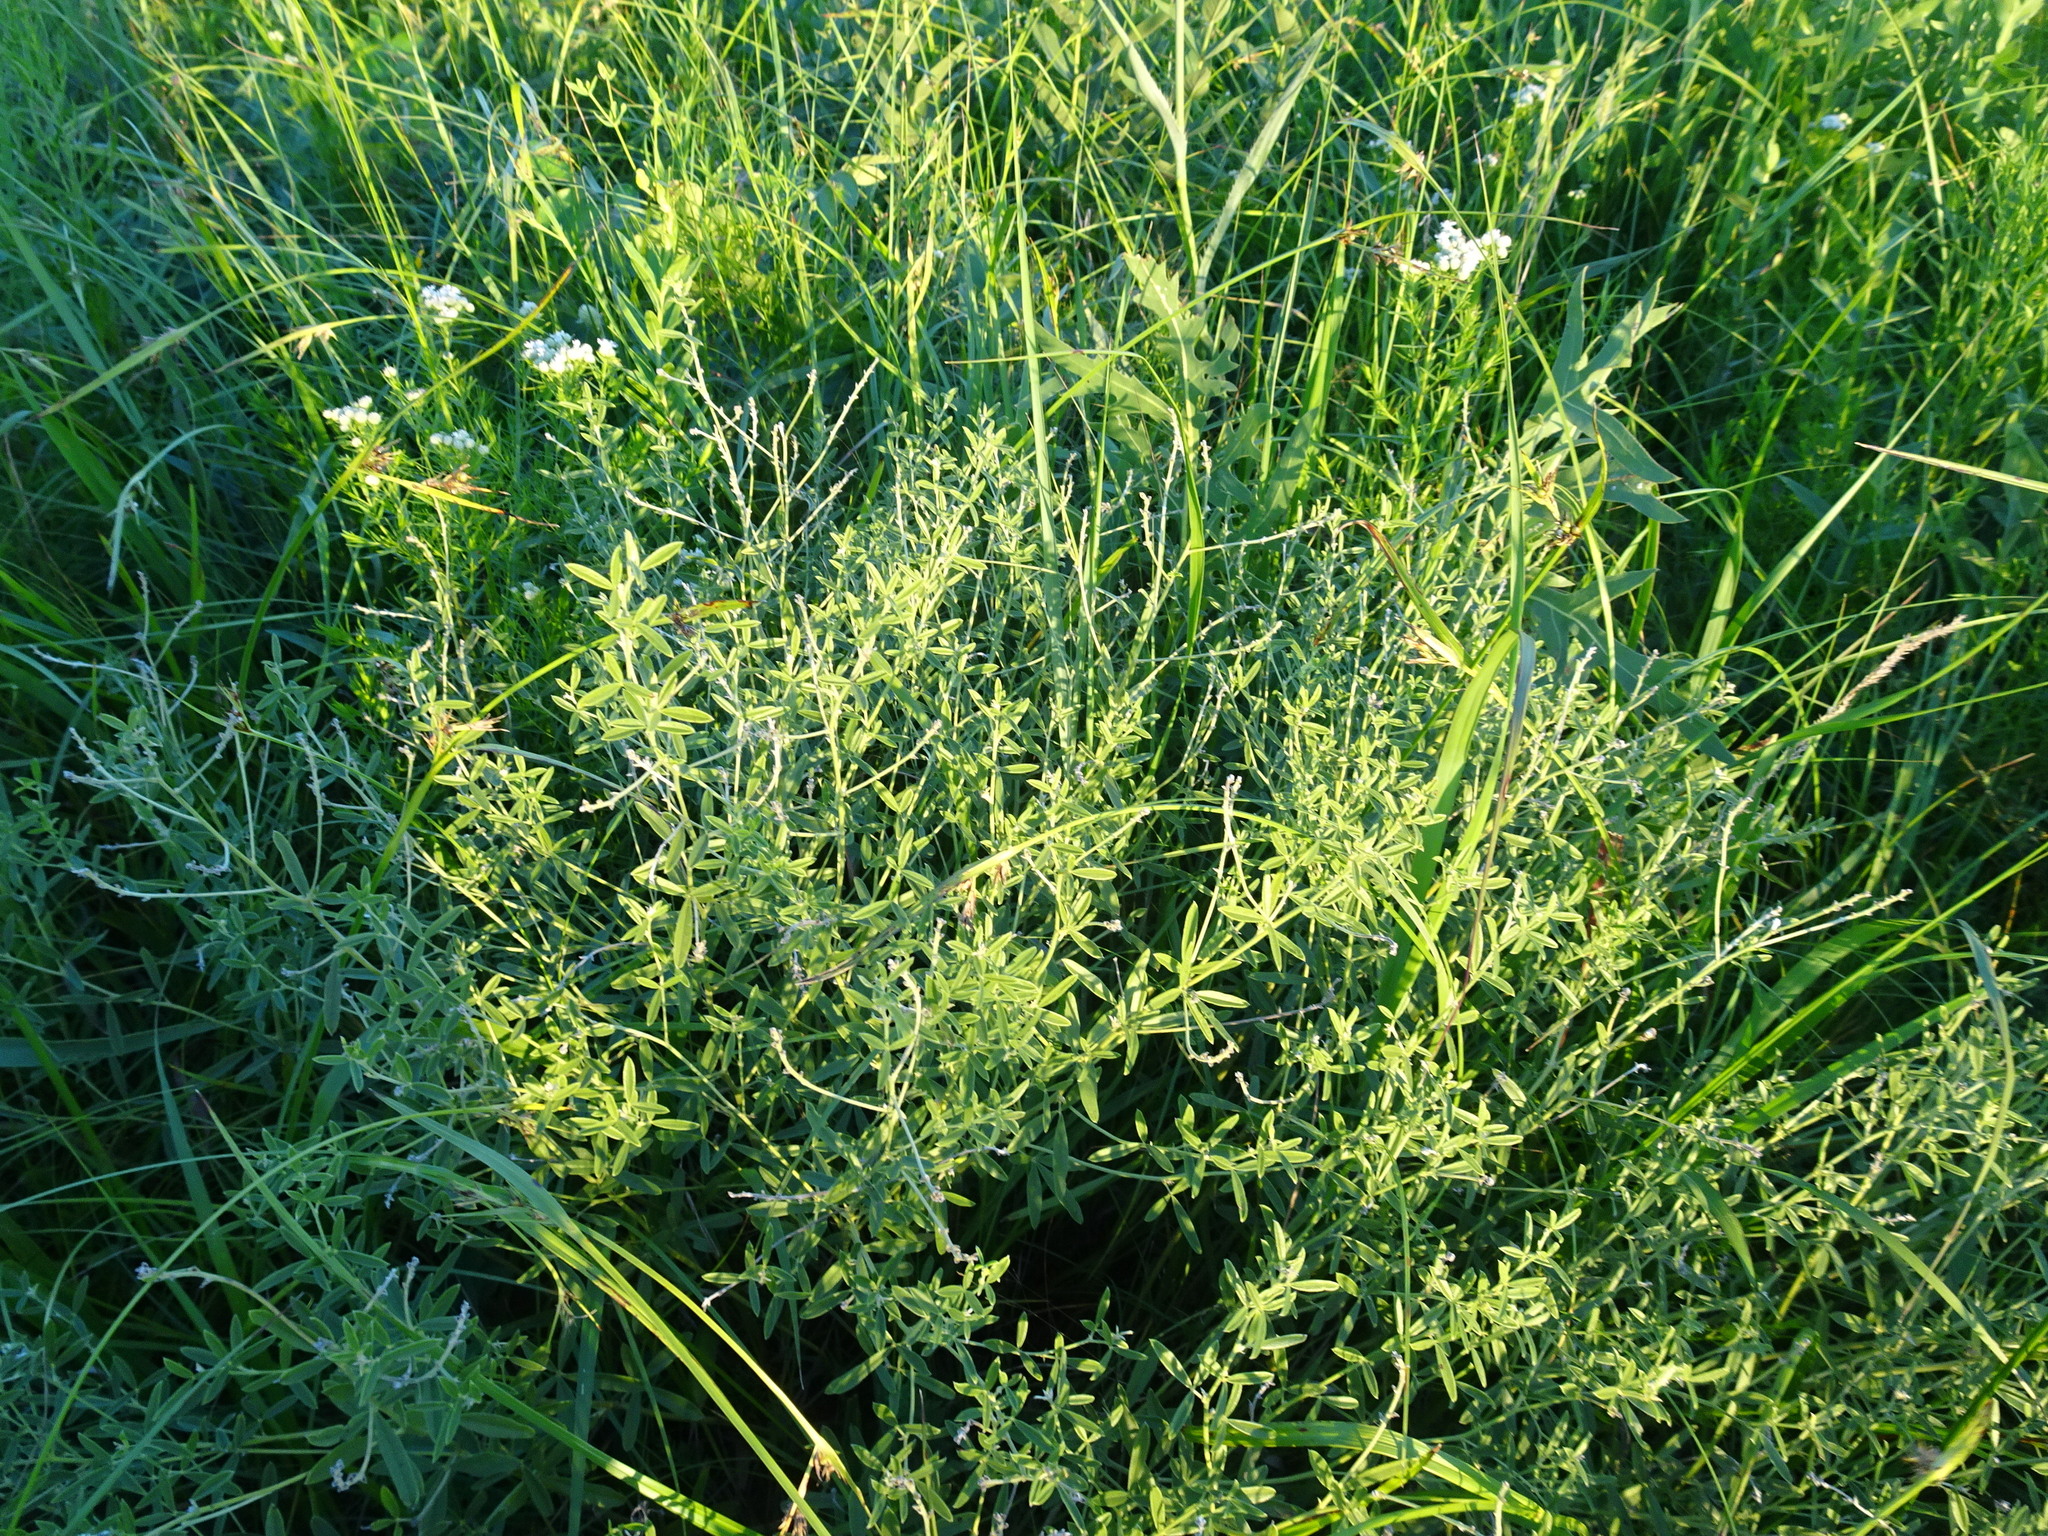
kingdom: Plantae
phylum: Tracheophyta
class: Magnoliopsida
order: Fabales
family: Fabaceae
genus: Pediomelum
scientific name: Pediomelum tenuiflorum
